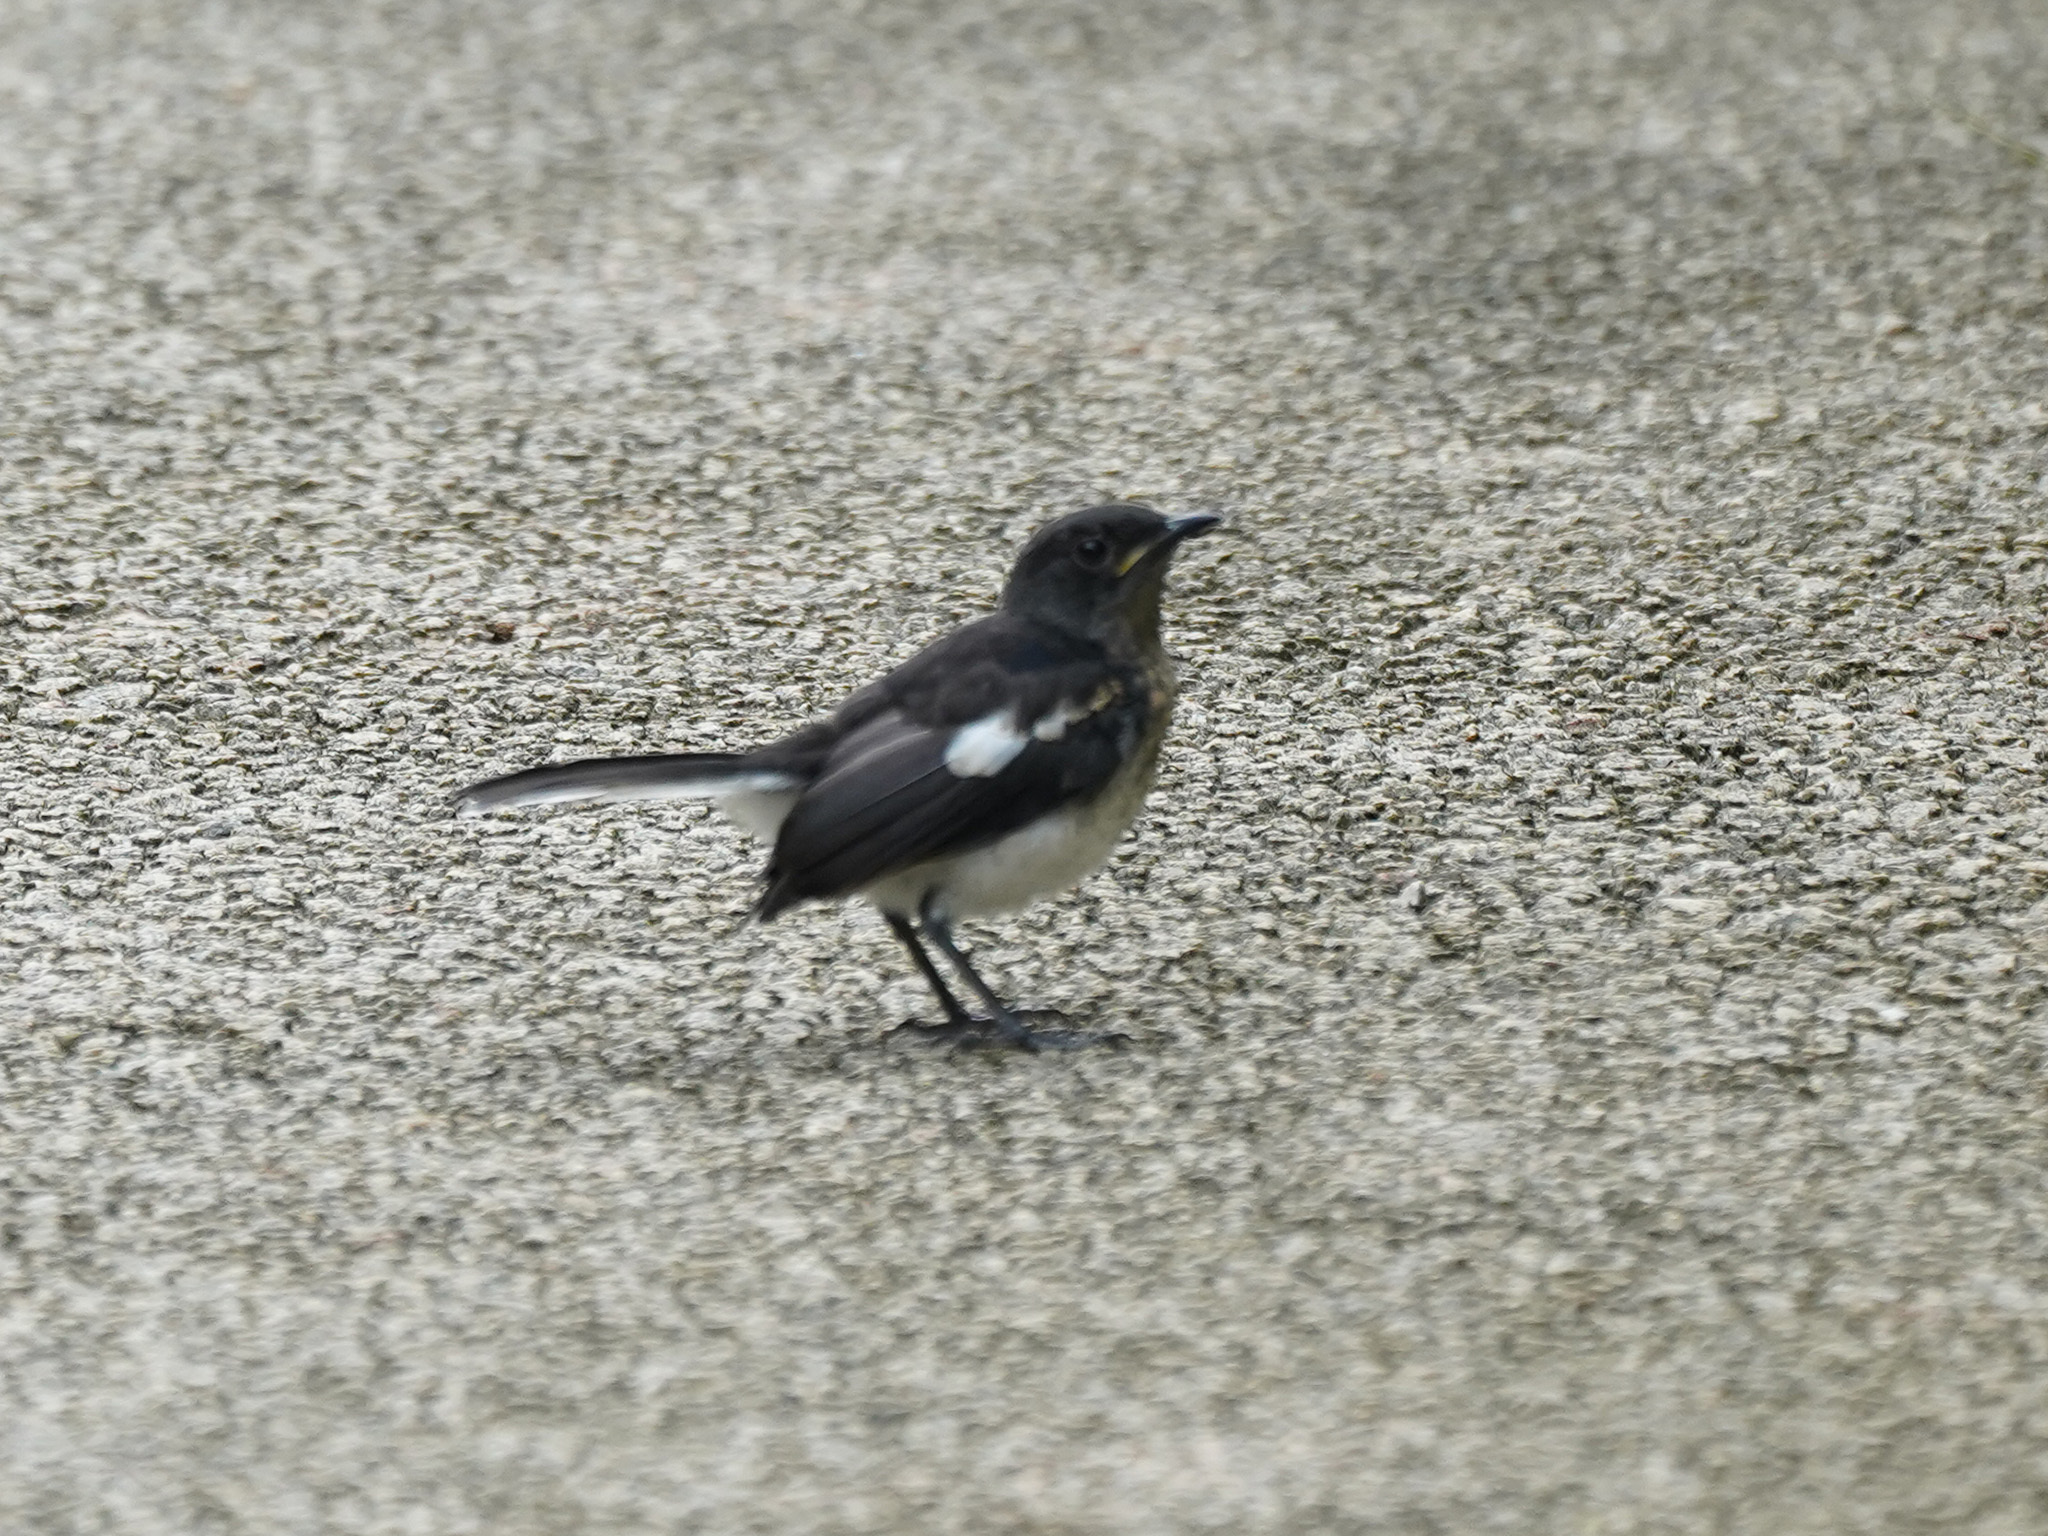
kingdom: Animalia
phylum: Chordata
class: Aves
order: Passeriformes
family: Muscicapidae
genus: Copsychus
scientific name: Copsychus saularis
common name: Oriental magpie-robin
